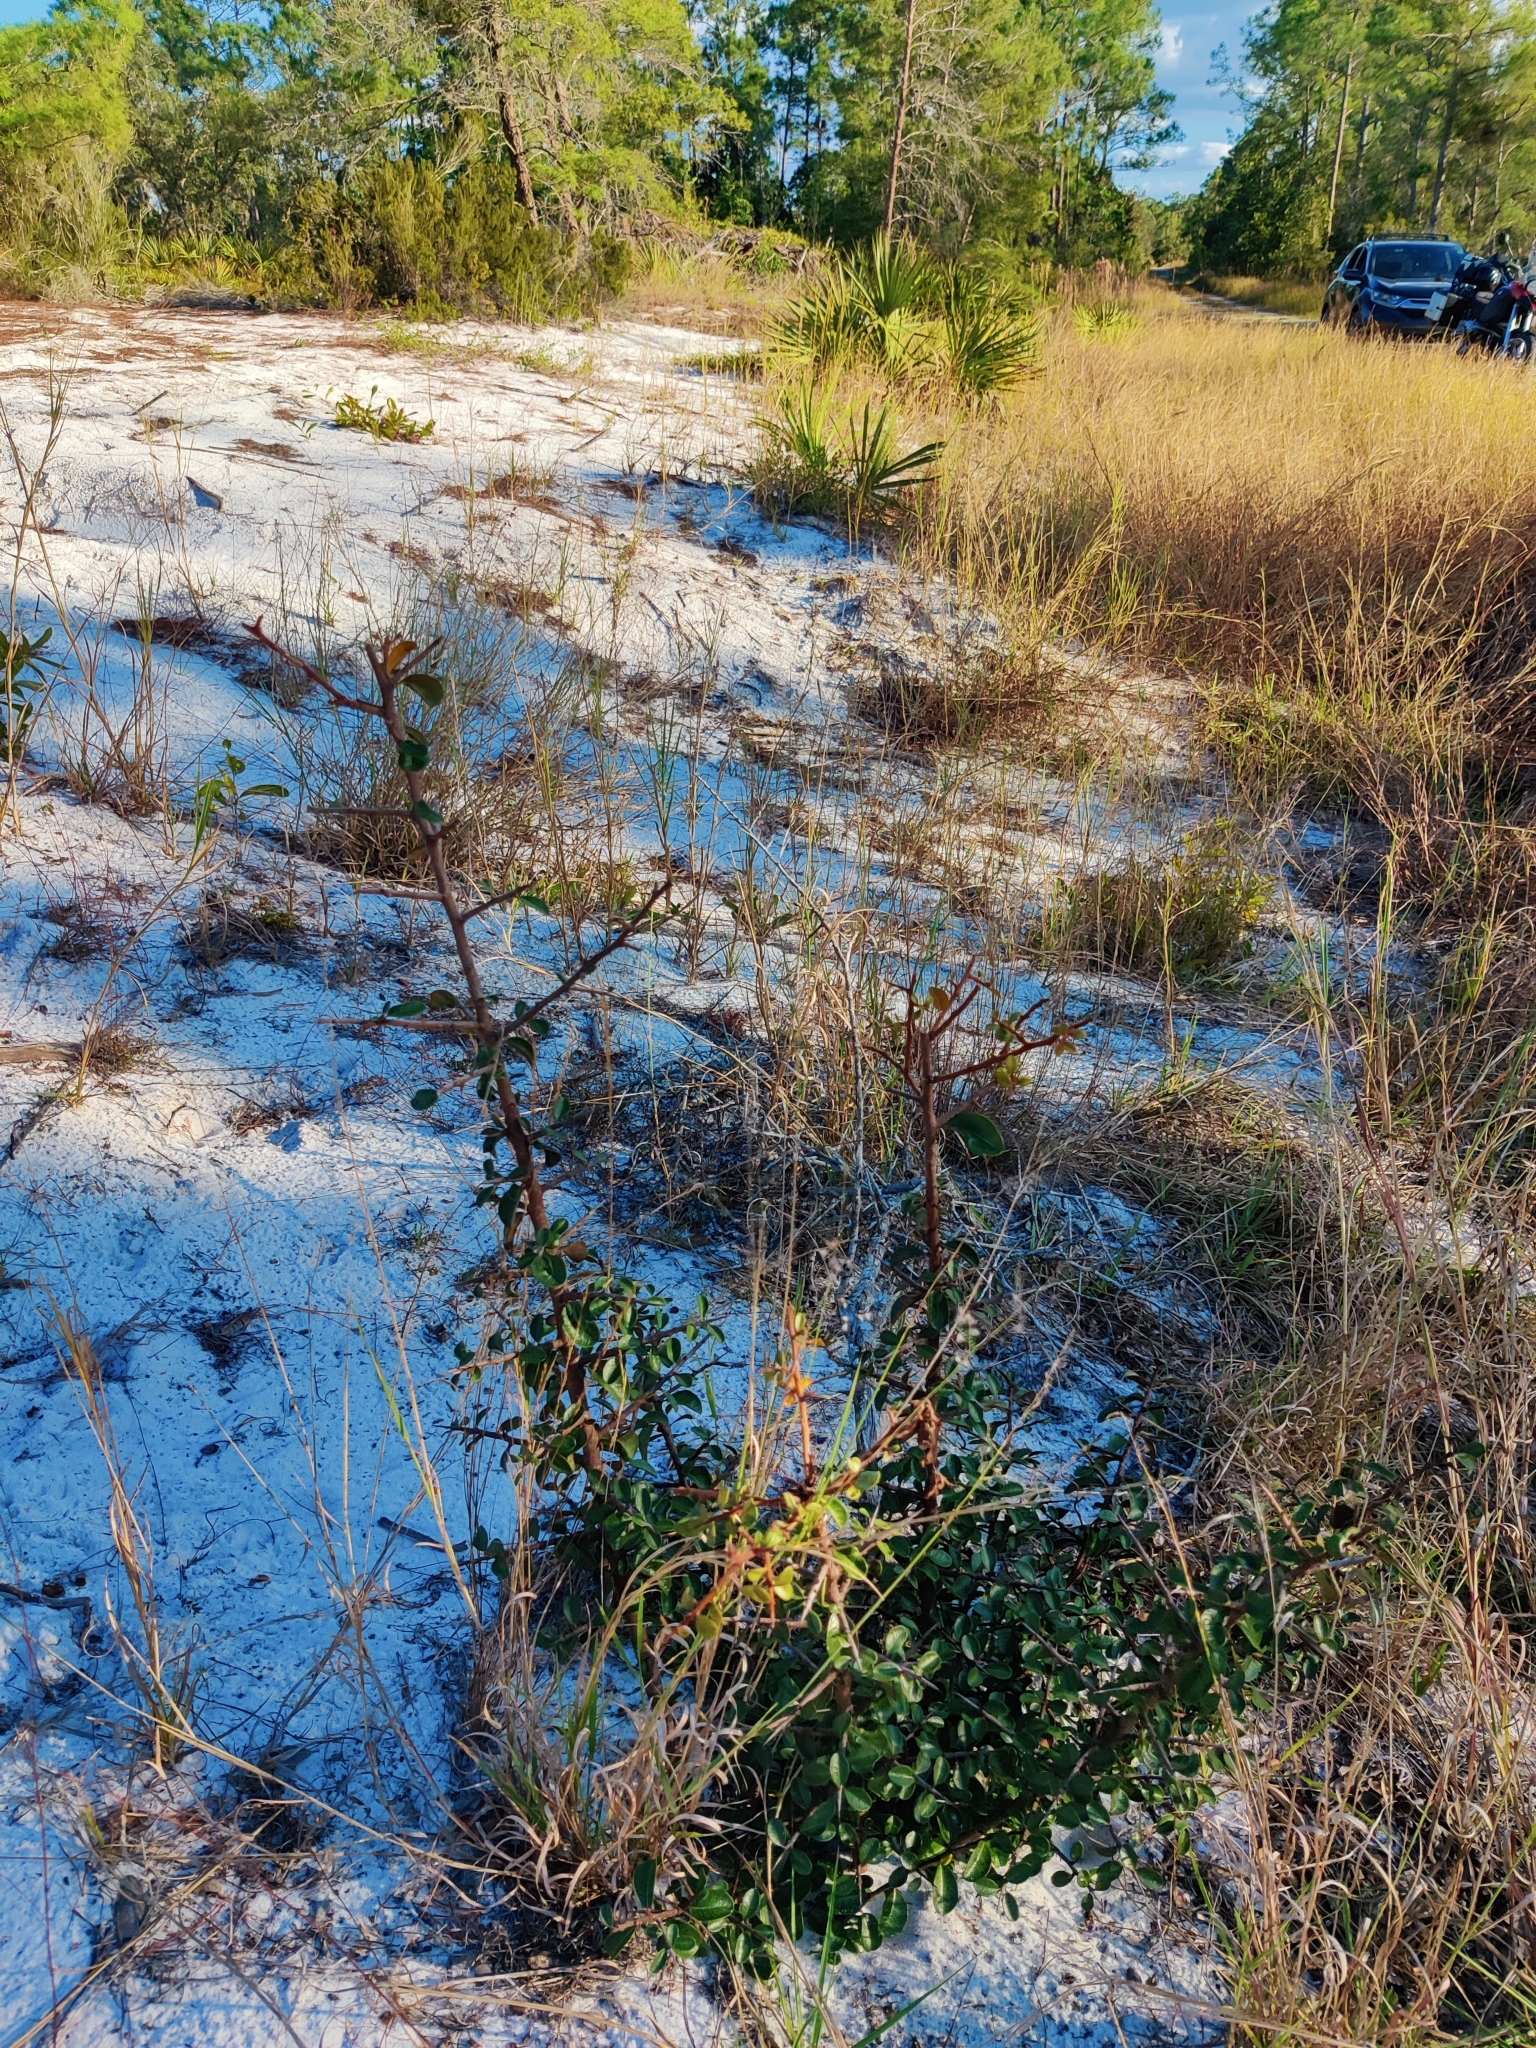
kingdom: Plantae
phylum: Tracheophyta
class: Magnoliopsida
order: Ericales
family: Sapotaceae
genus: Sideroxylon
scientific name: Sideroxylon tenax
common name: Tough-buckthorn
